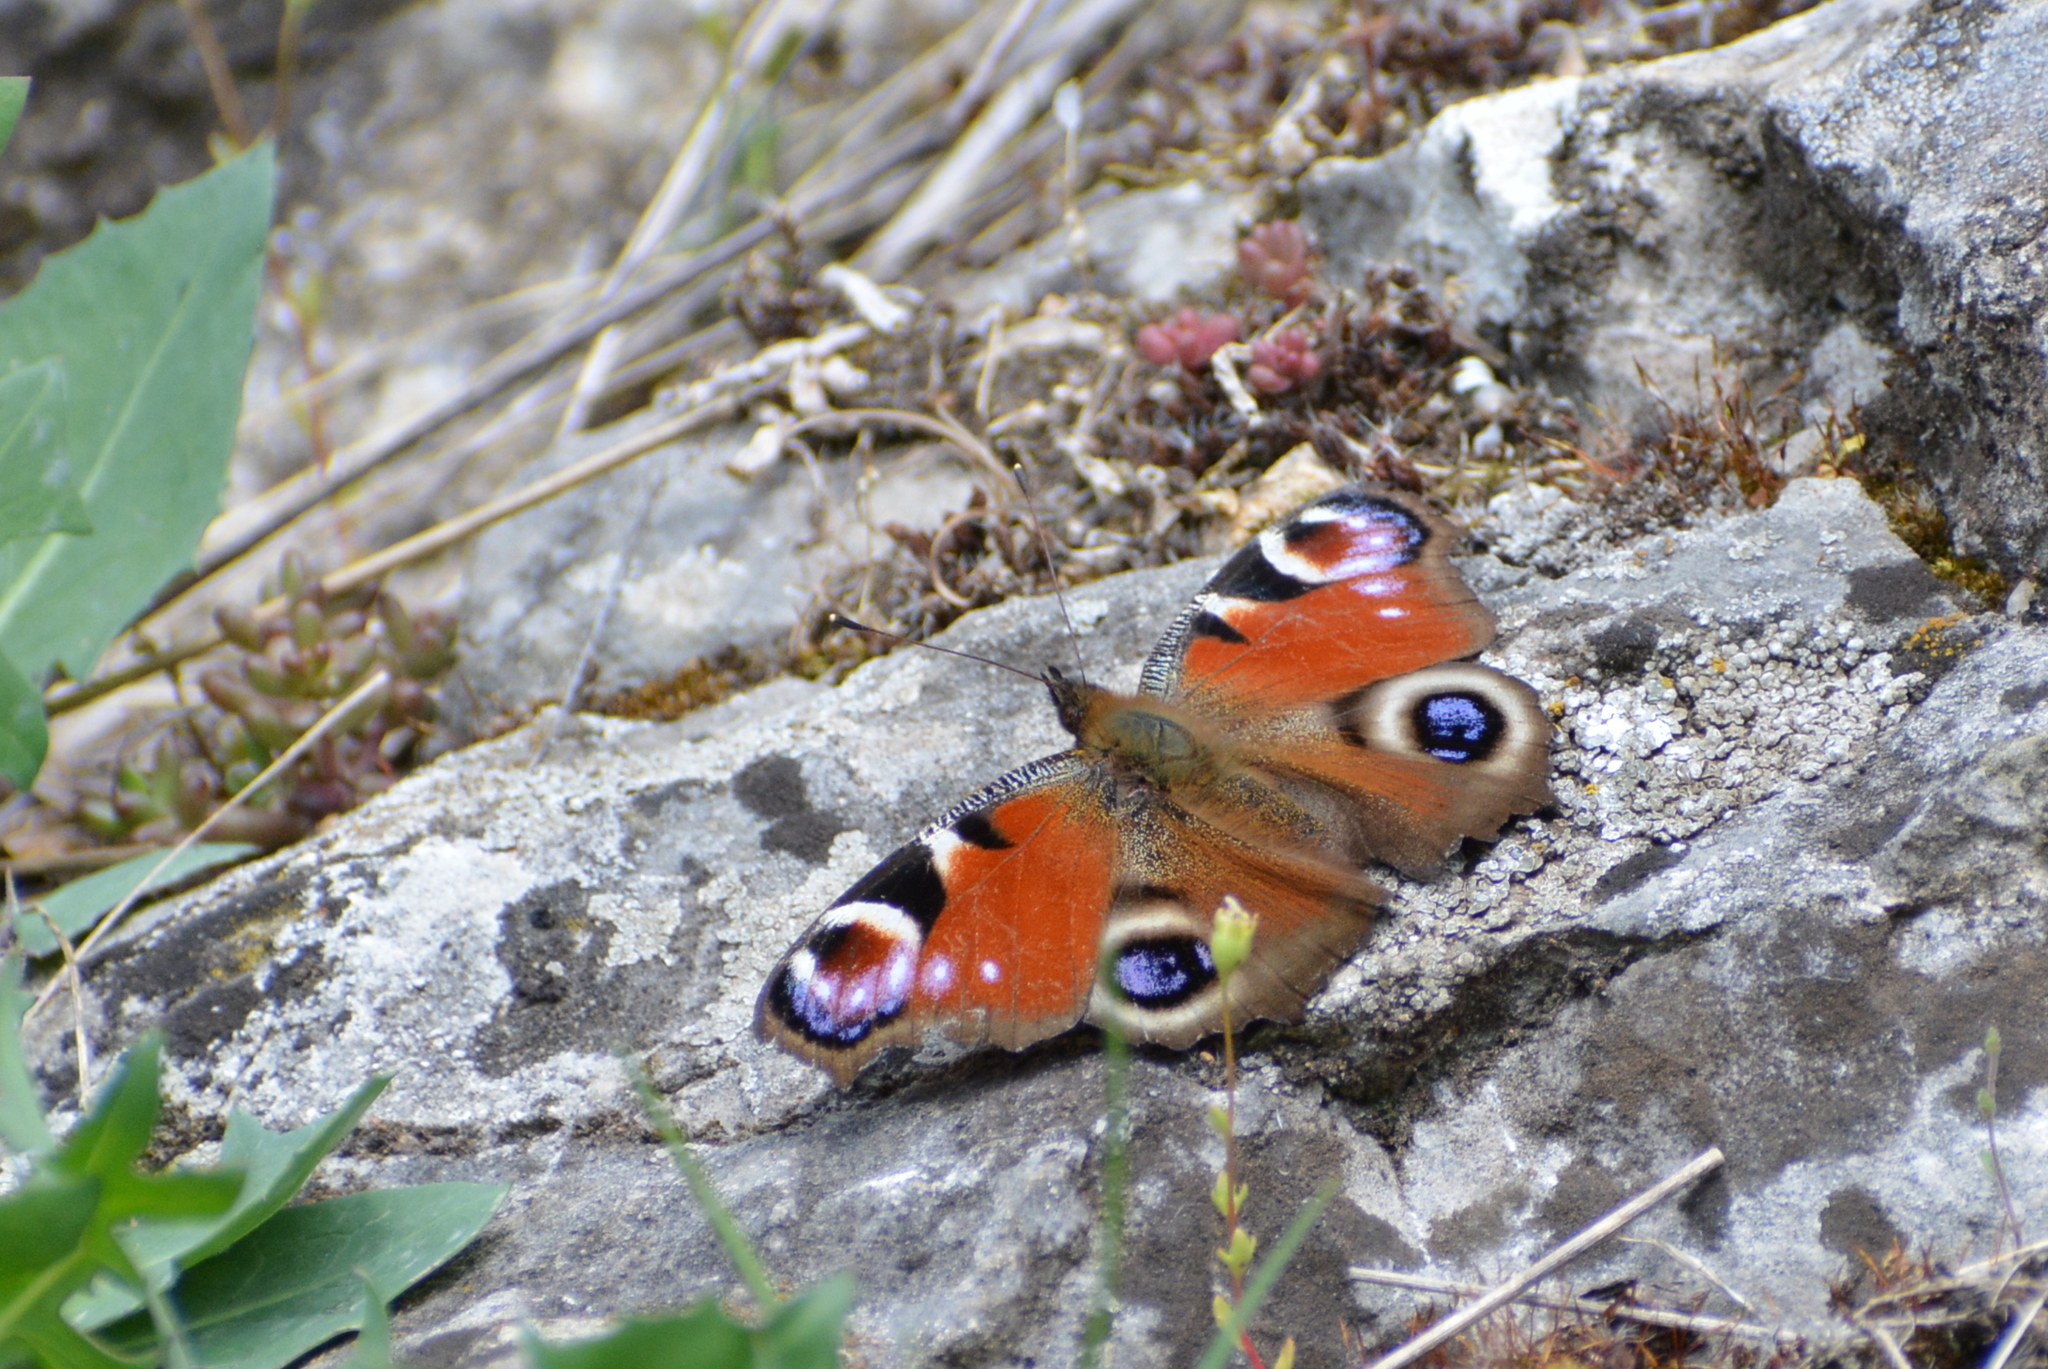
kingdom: Animalia
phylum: Arthropoda
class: Insecta
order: Lepidoptera
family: Nymphalidae
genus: Aglais
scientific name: Aglais io
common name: Peacock
